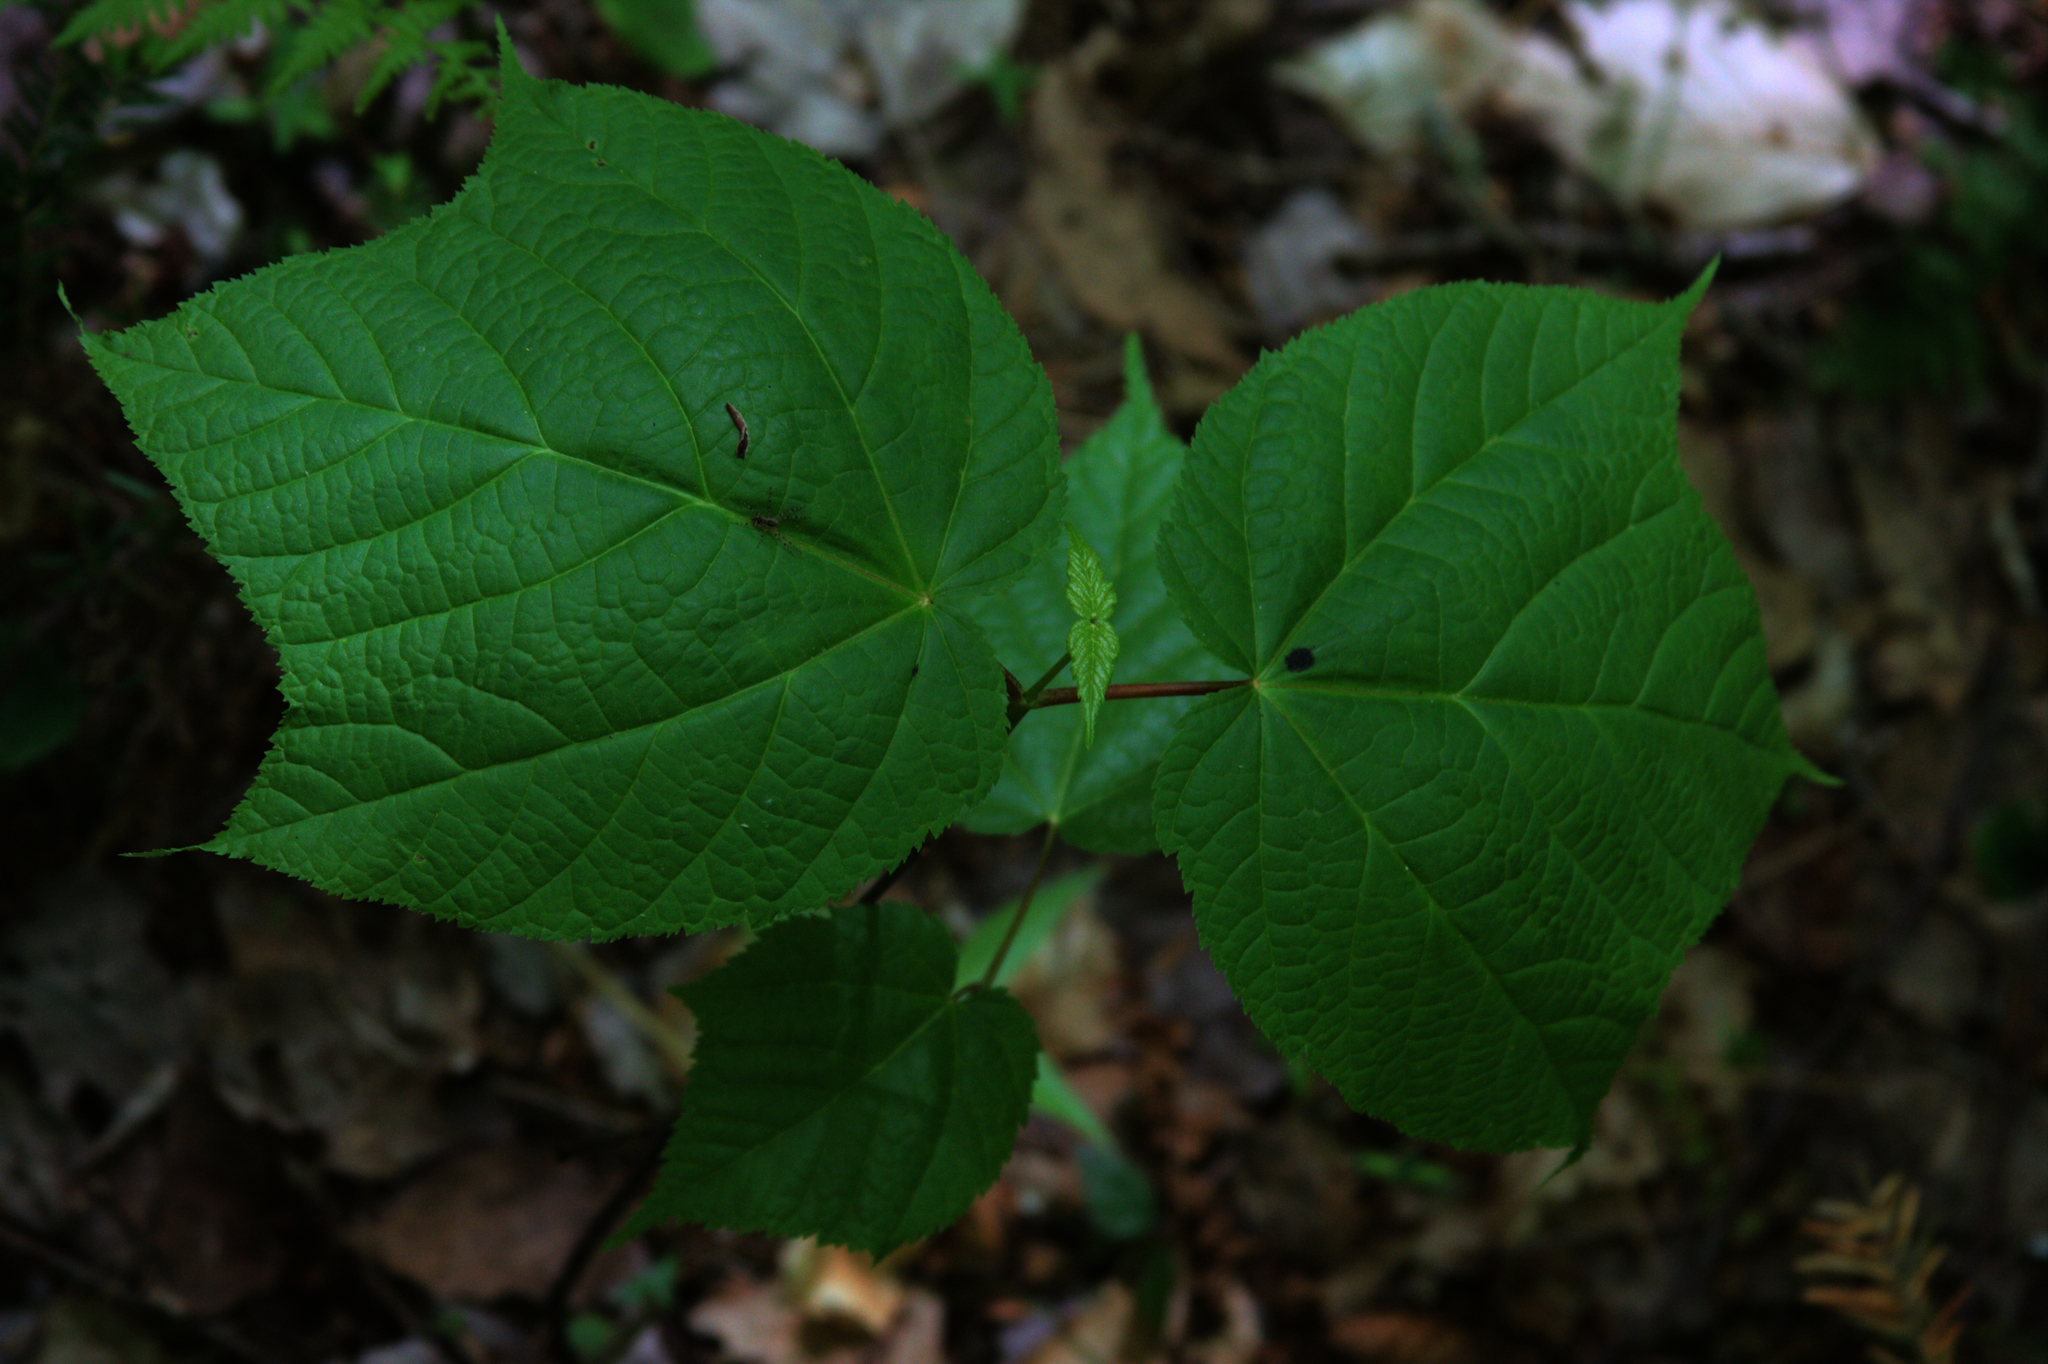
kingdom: Plantae
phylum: Tracheophyta
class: Magnoliopsida
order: Sapindales
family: Sapindaceae
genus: Acer
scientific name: Acer pensylvanicum
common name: Moosewood
